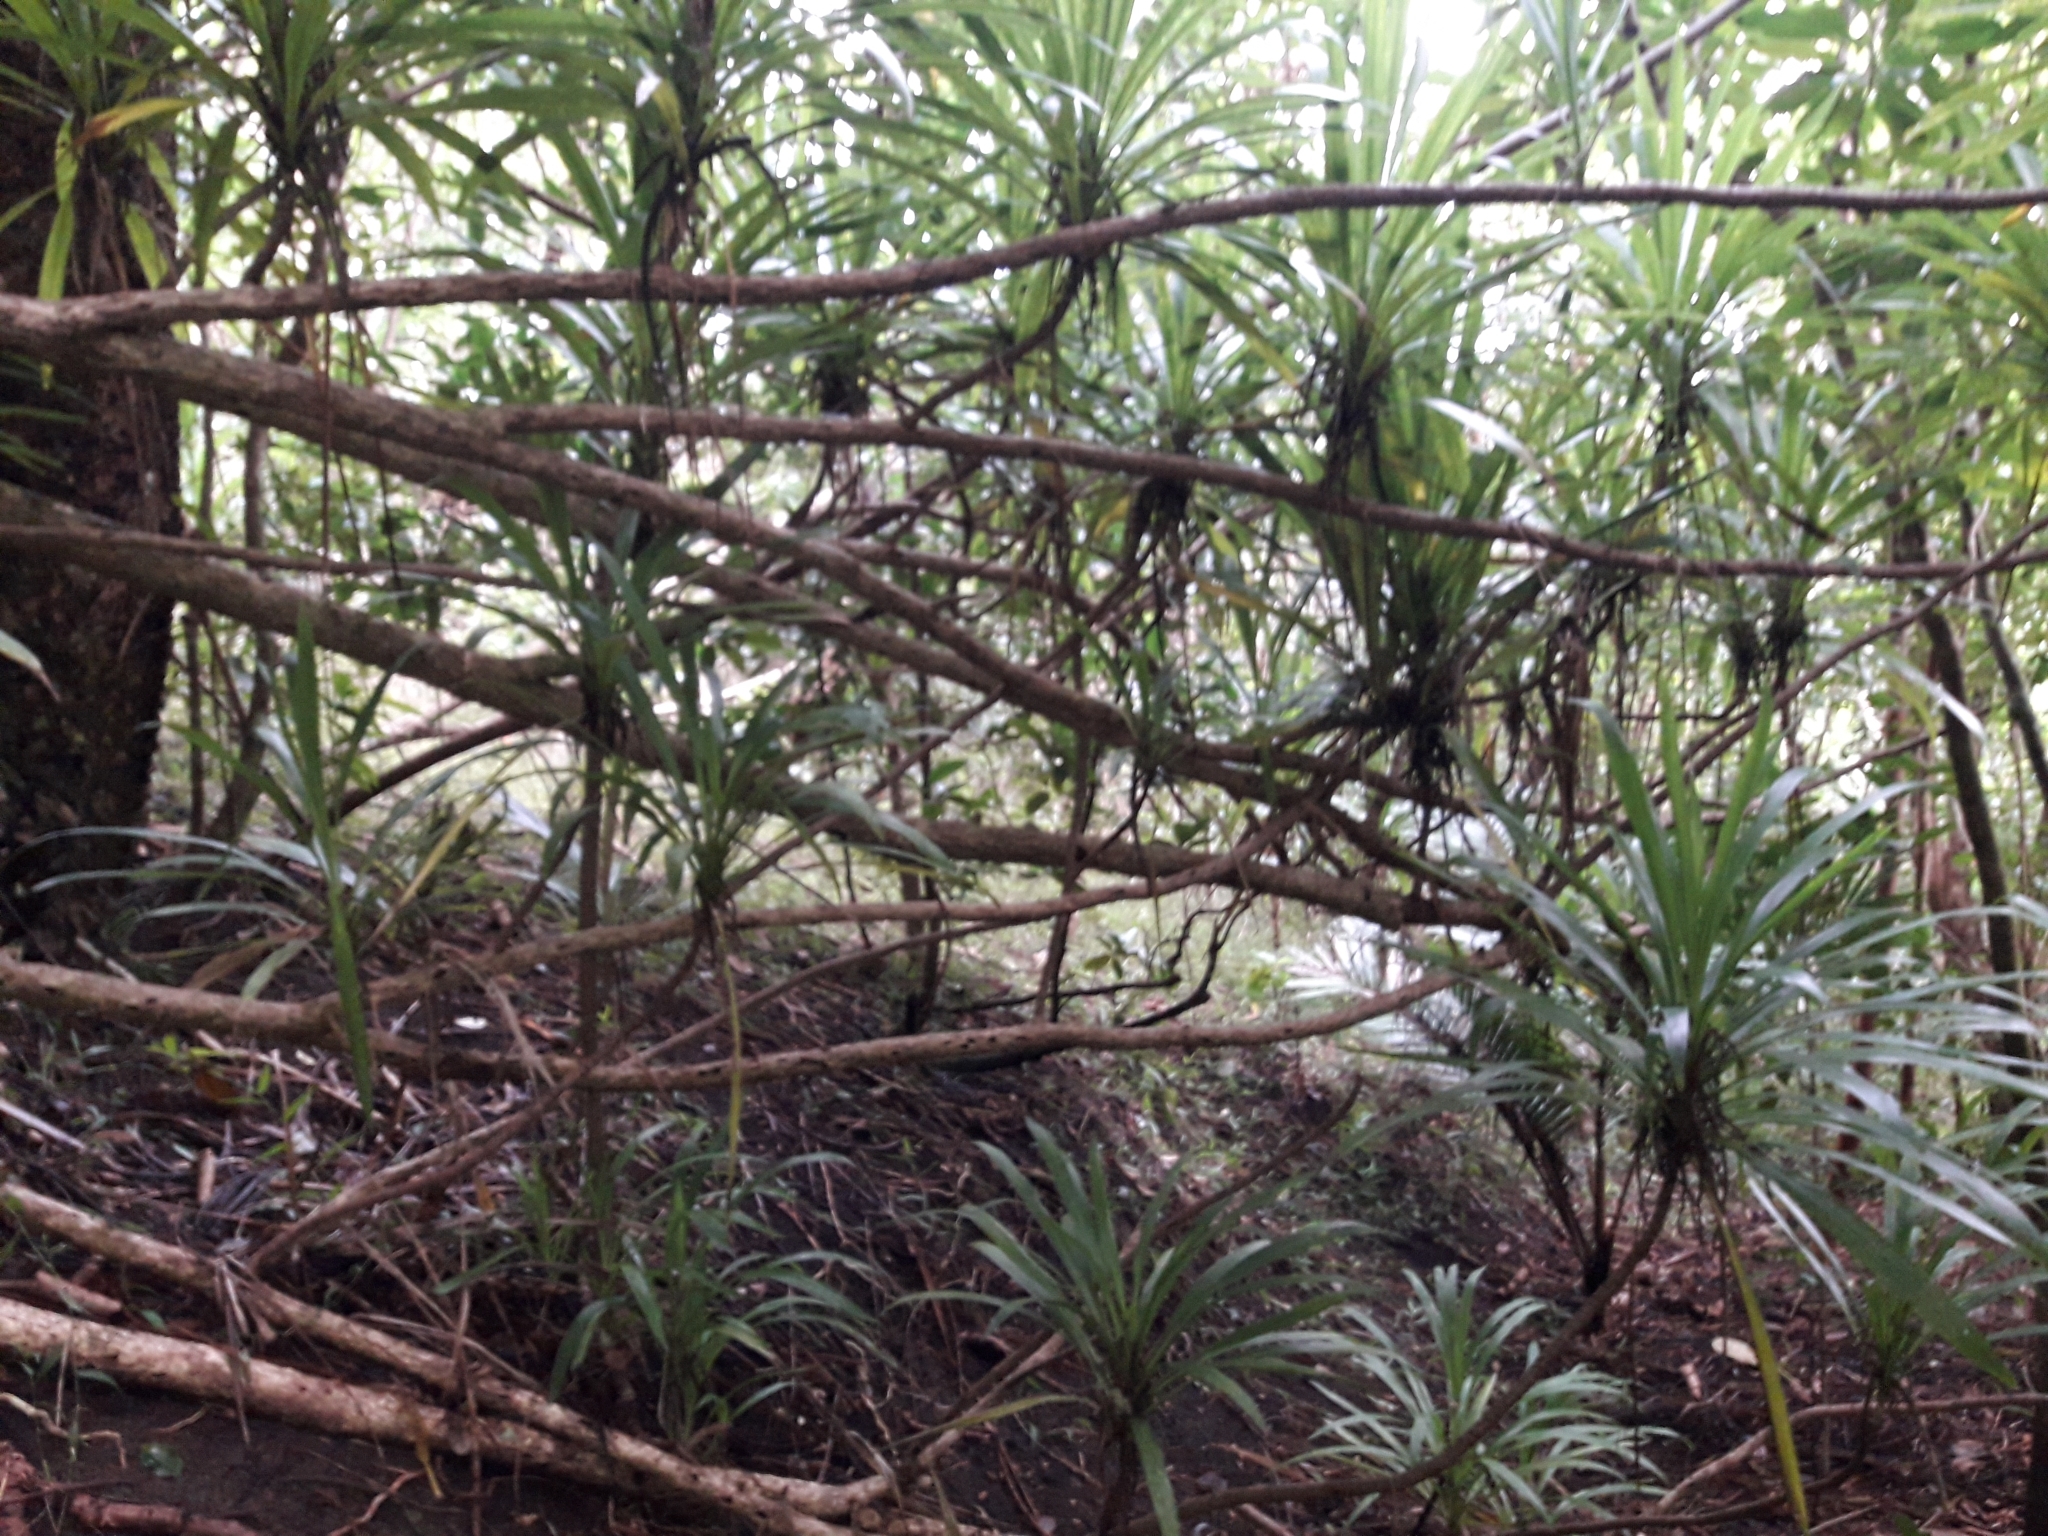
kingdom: Plantae
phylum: Tracheophyta
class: Liliopsida
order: Asparagales
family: Asparagaceae
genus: Cordyline
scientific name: Cordyline obtecta
